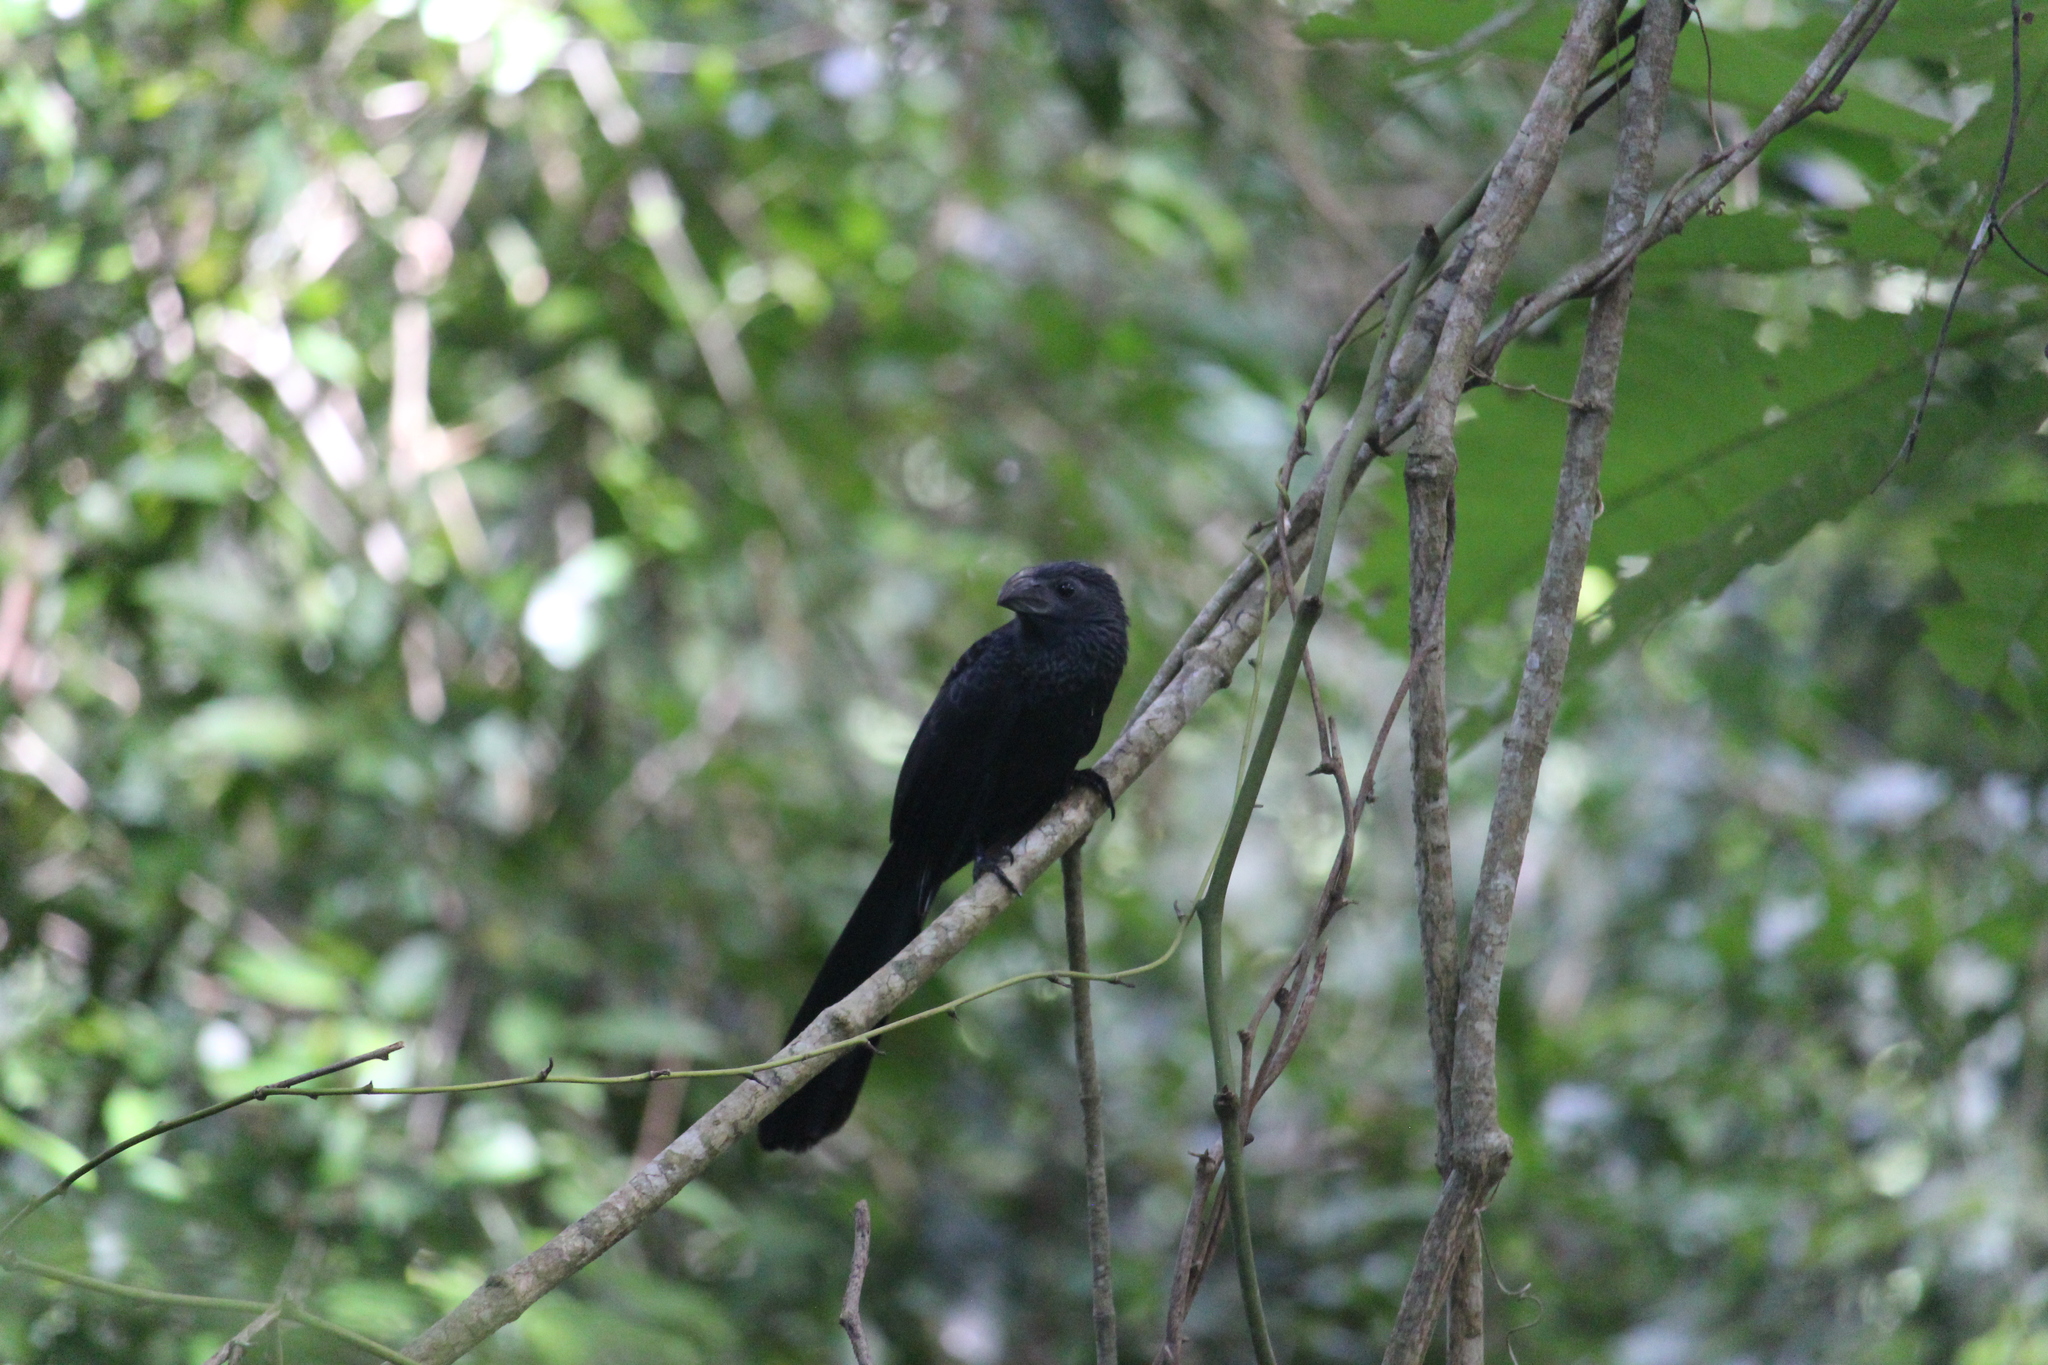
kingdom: Animalia
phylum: Chordata
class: Aves
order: Cuculiformes
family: Cuculidae
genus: Crotophaga
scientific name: Crotophaga sulcirostris
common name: Groove-billed ani
